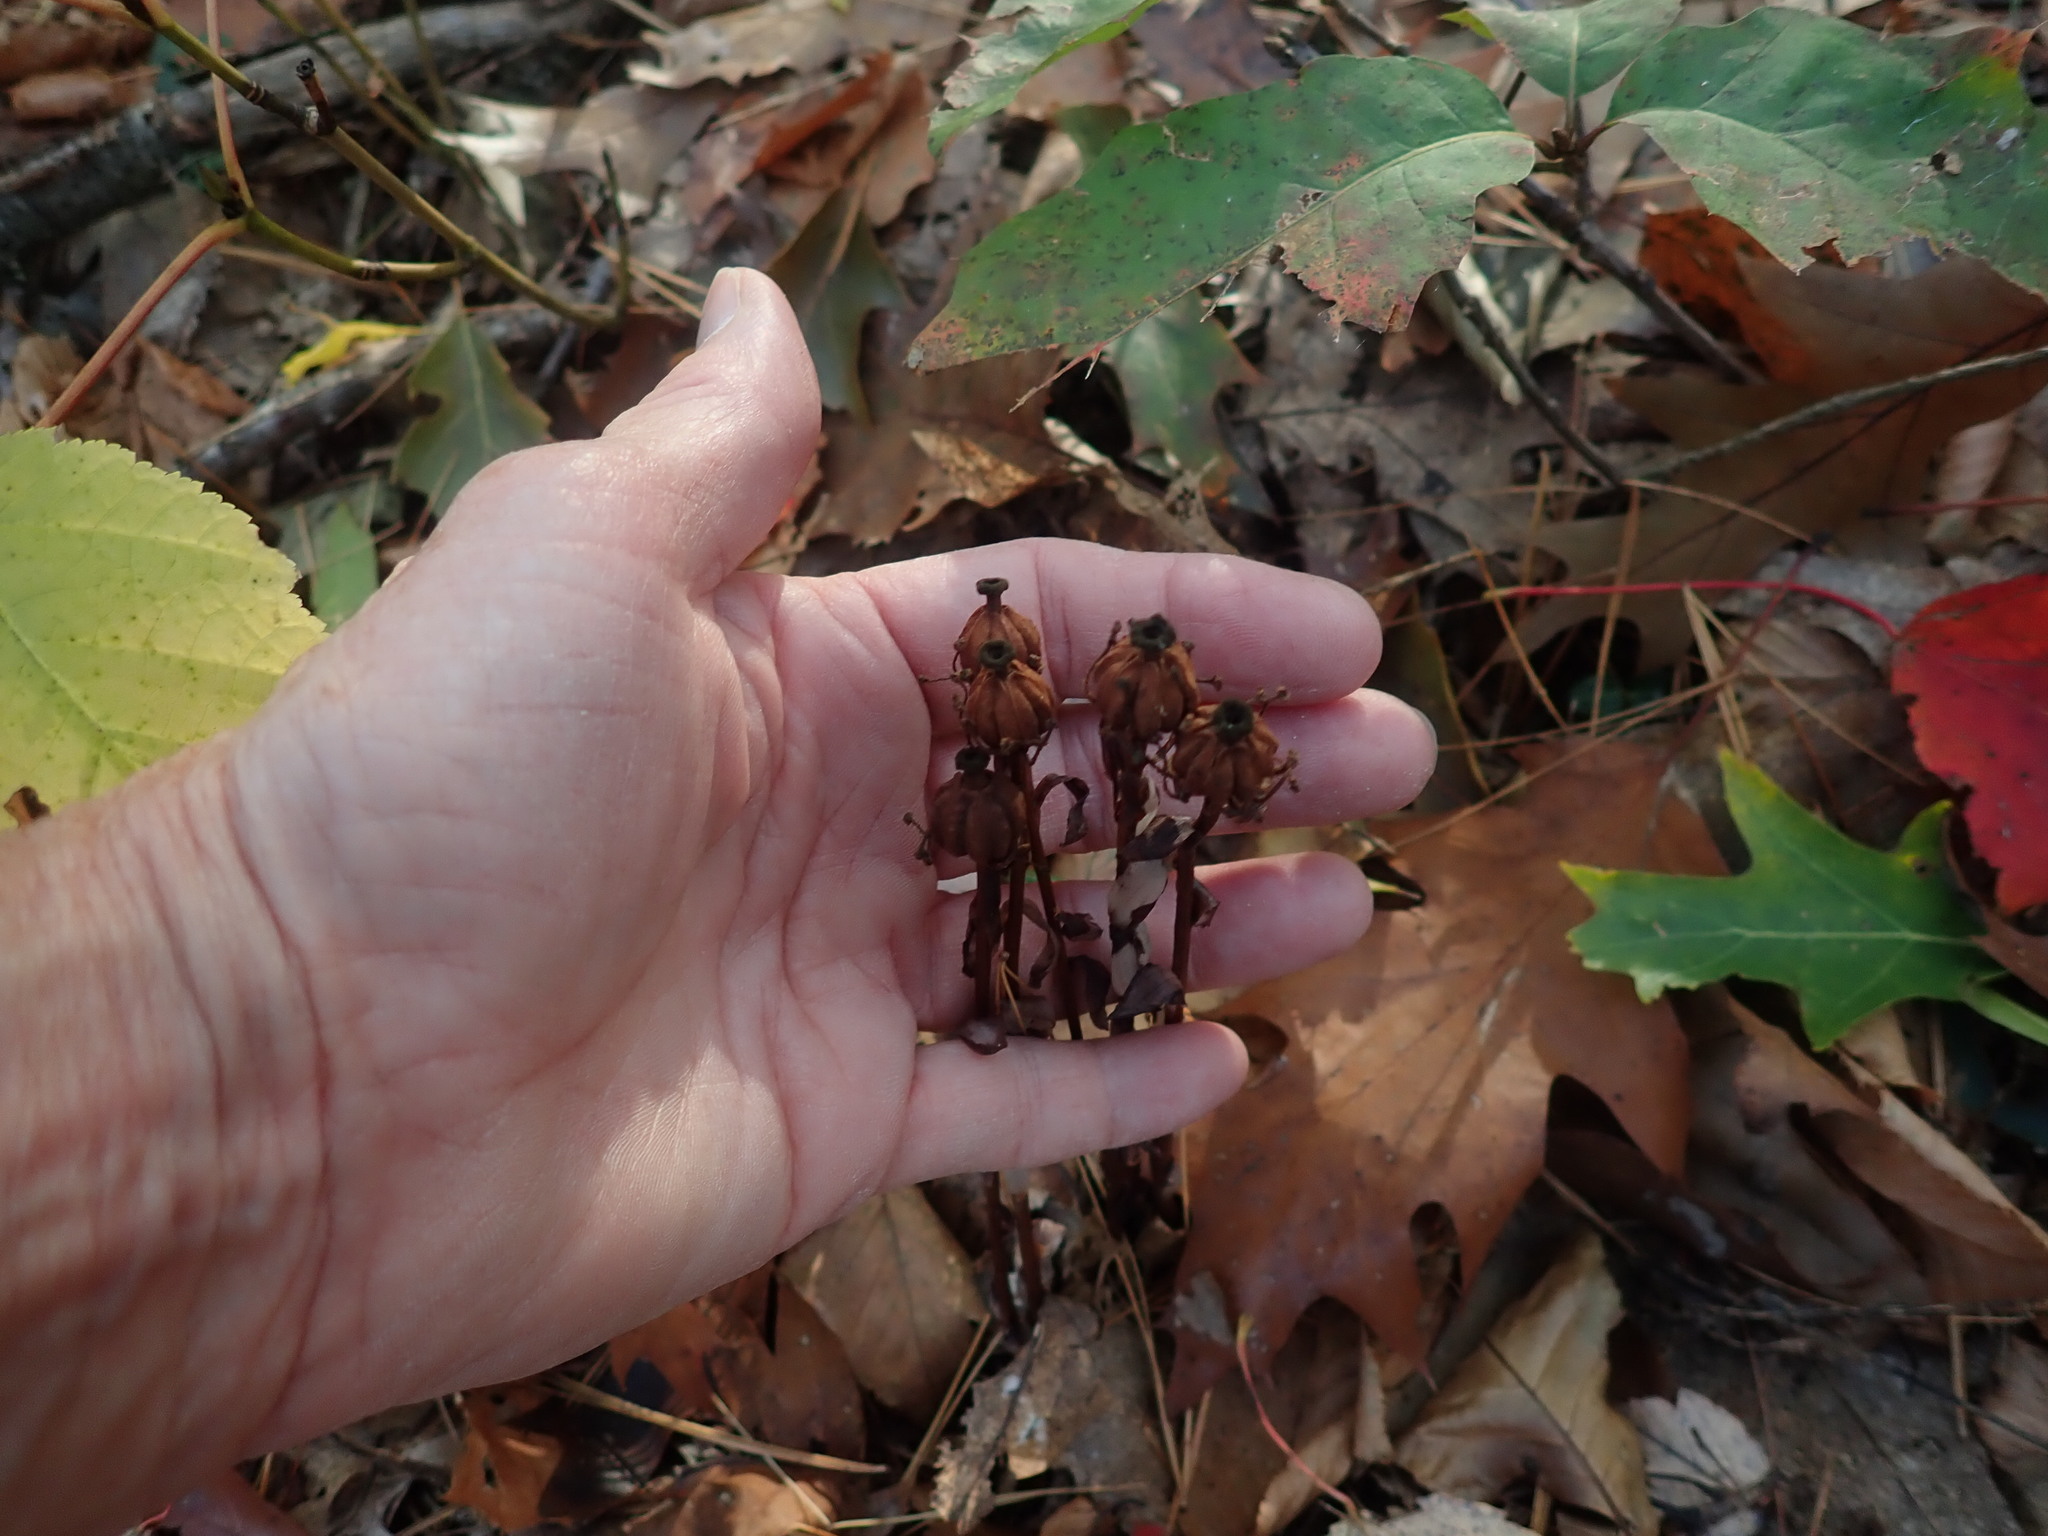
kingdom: Plantae
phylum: Tracheophyta
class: Magnoliopsida
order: Ericales
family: Ericaceae
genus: Monotropa
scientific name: Monotropa uniflora
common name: Convulsion root
